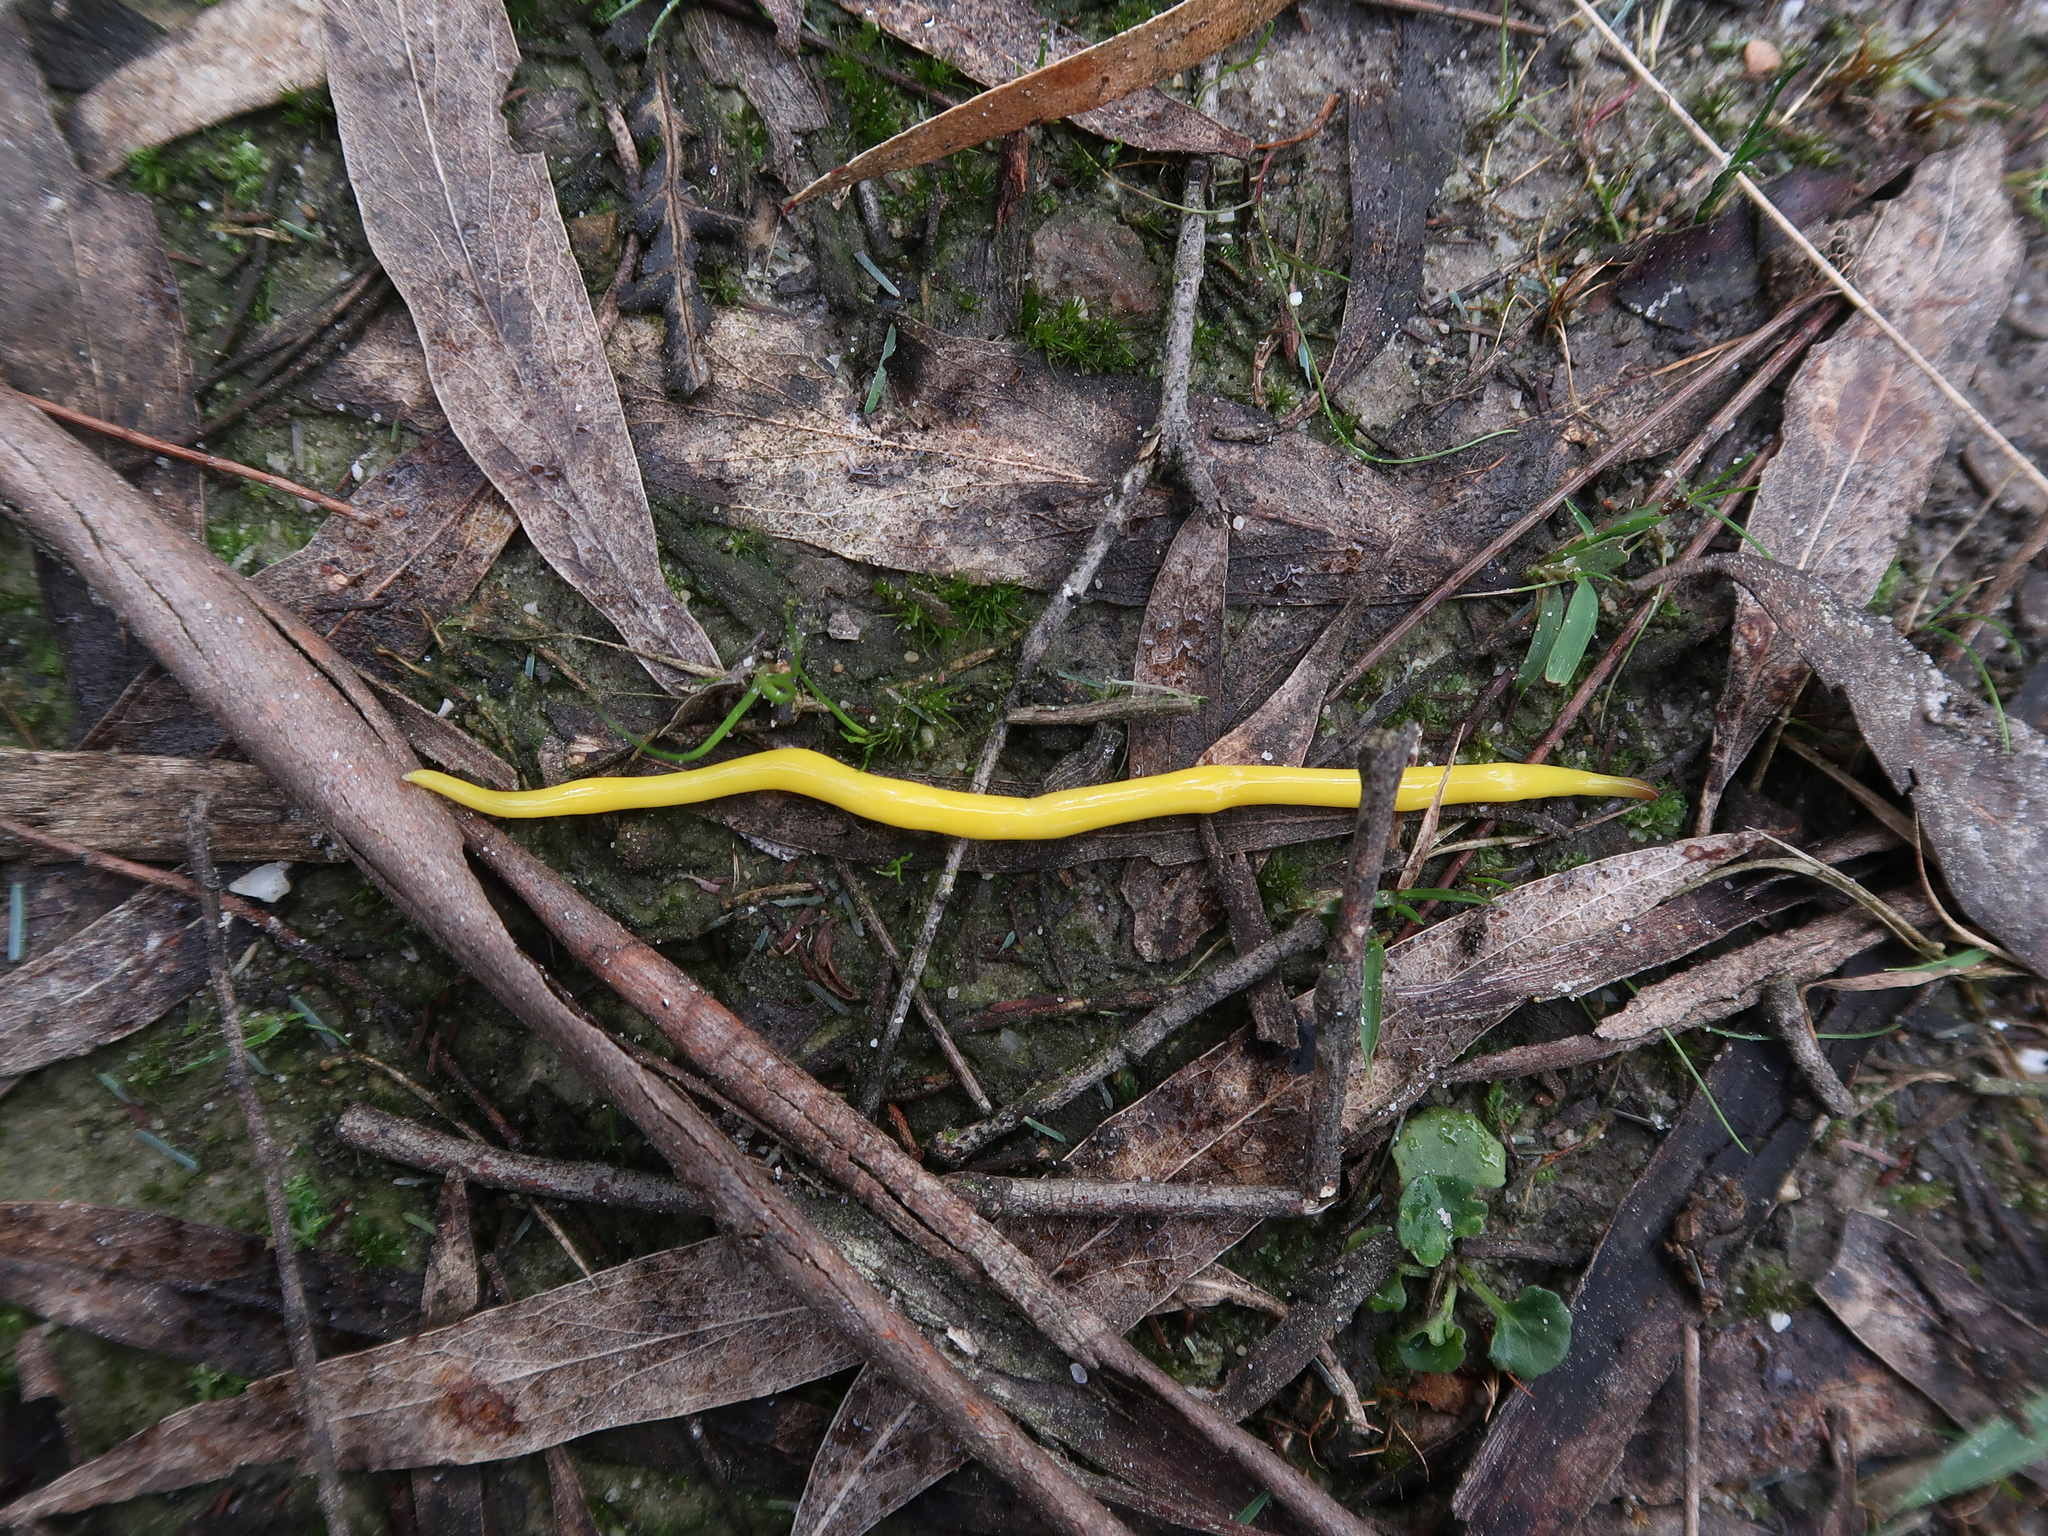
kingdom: Animalia
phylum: Platyhelminthes
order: Tricladida
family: Geoplanidae
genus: Fletchamia
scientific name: Fletchamia sugdeni
